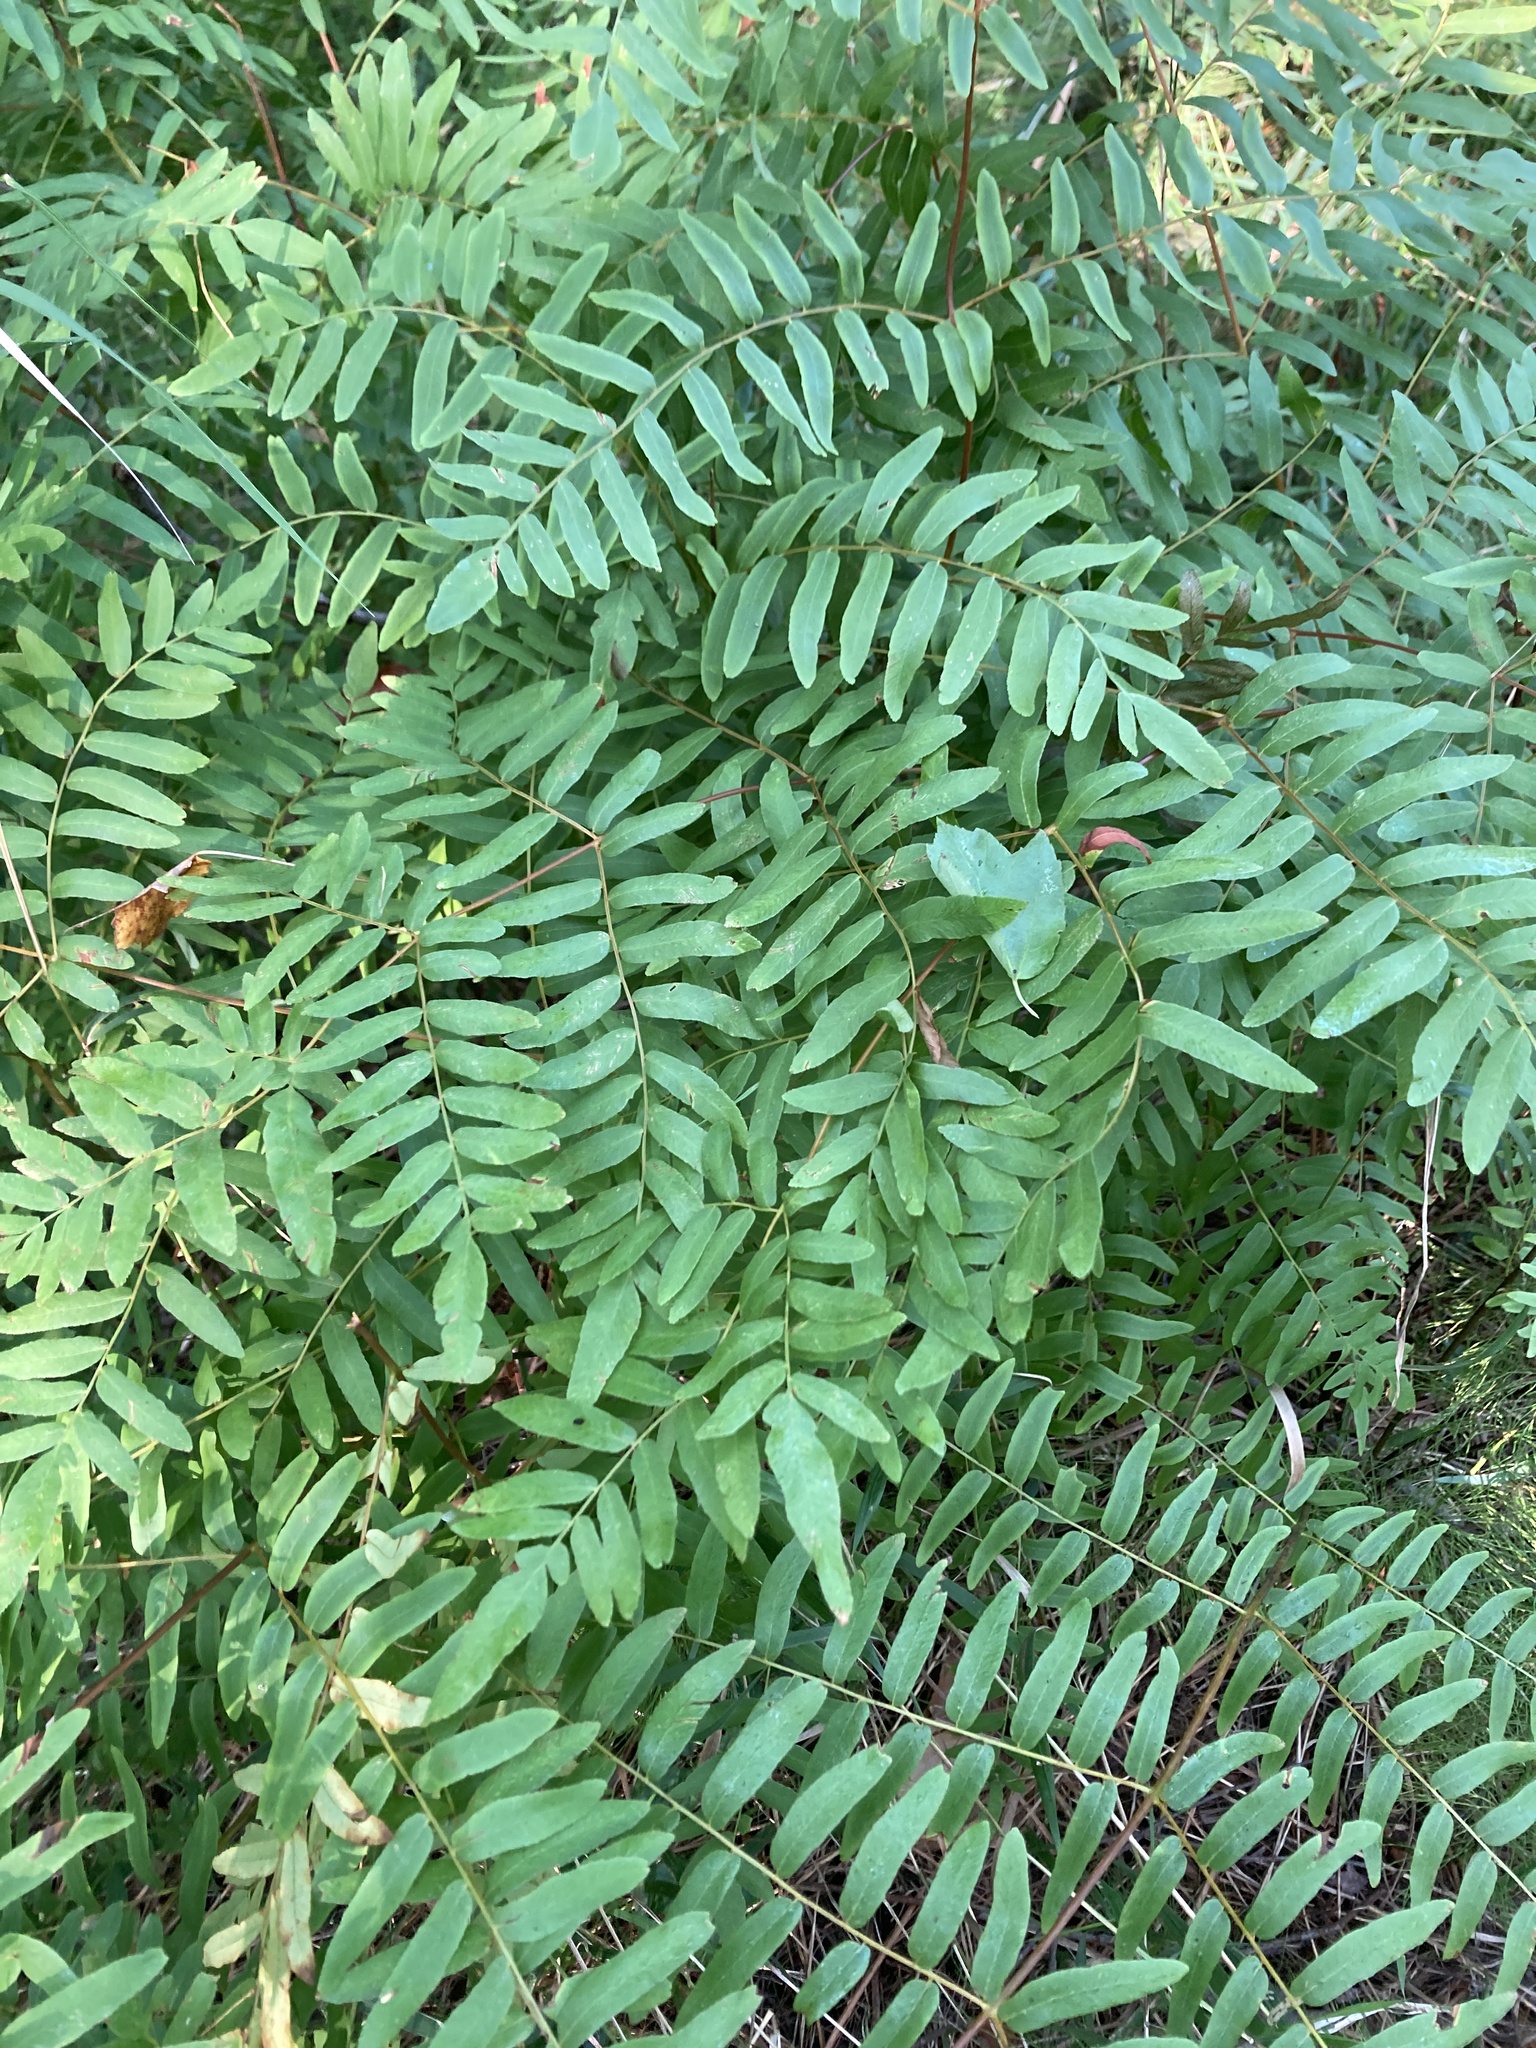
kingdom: Plantae
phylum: Tracheophyta
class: Polypodiopsida
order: Osmundales
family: Osmundaceae
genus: Osmunda
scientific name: Osmunda spectabilis
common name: American royal fern
